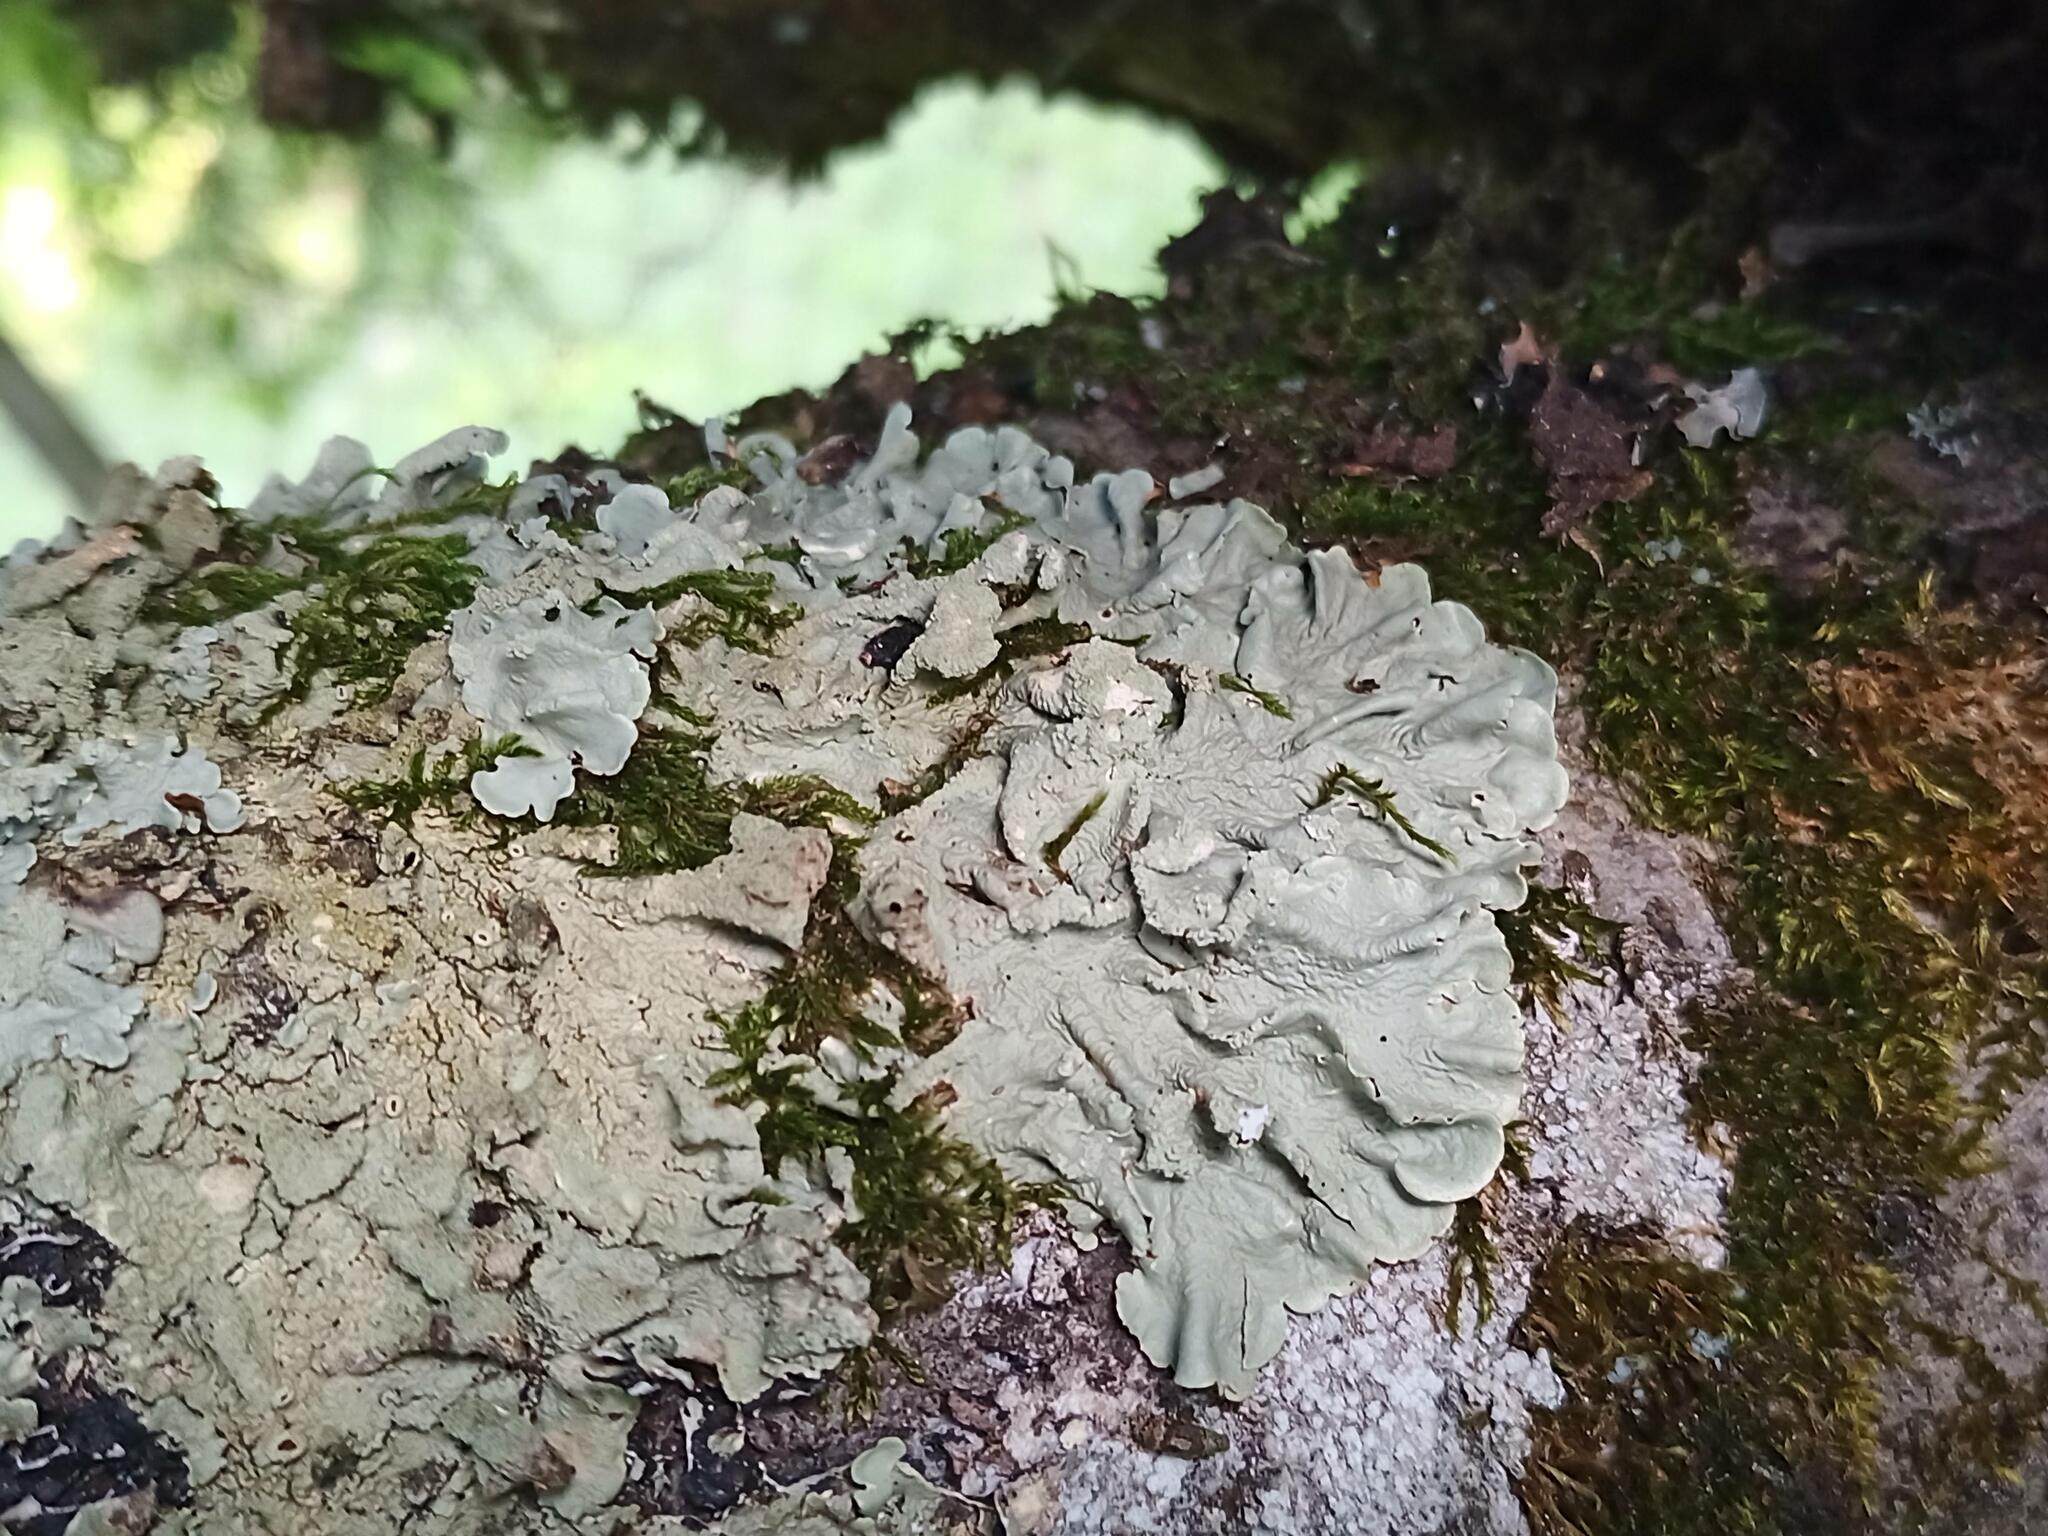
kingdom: Fungi
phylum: Ascomycota
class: Lecanoromycetes
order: Lecanorales
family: Parmeliaceae
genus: Flavoparmelia
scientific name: Flavoparmelia caperata
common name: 40-mile per hour lichen
